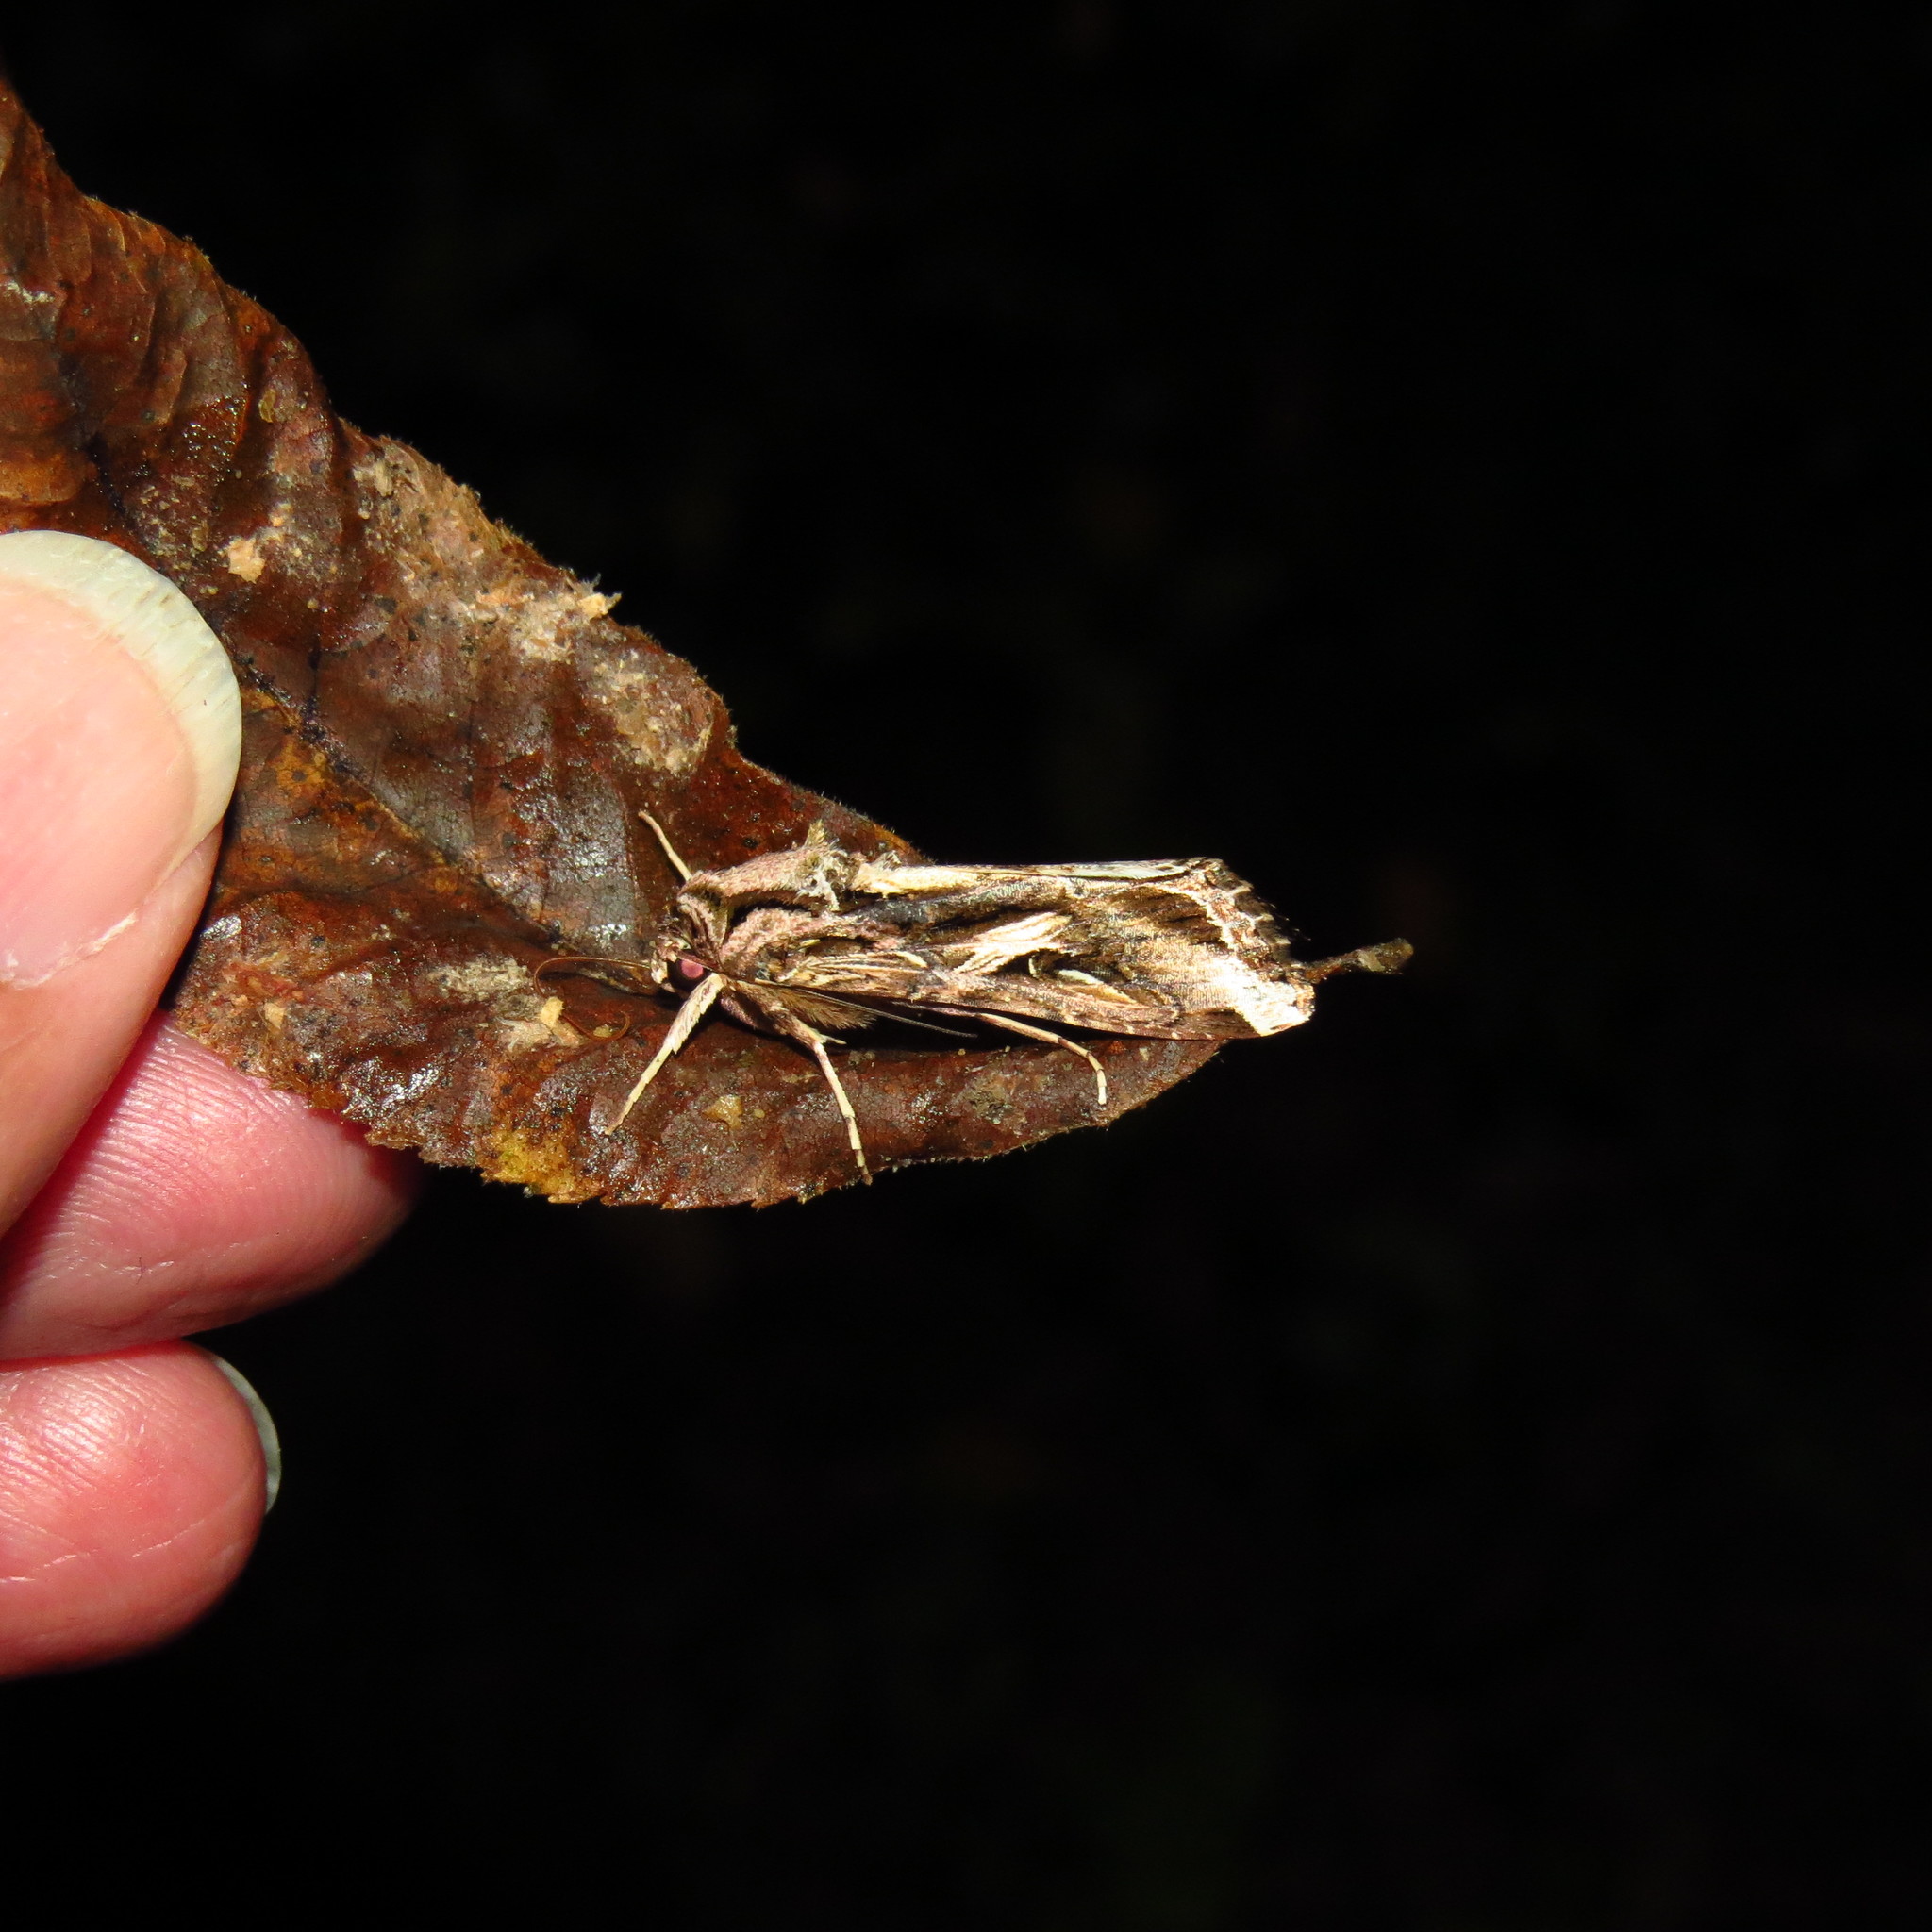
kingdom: Animalia
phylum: Arthropoda
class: Insecta
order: Lepidoptera
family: Noctuidae
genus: Spodoptera
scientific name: Spodoptera dolichos
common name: Sweetpotato armyworm
